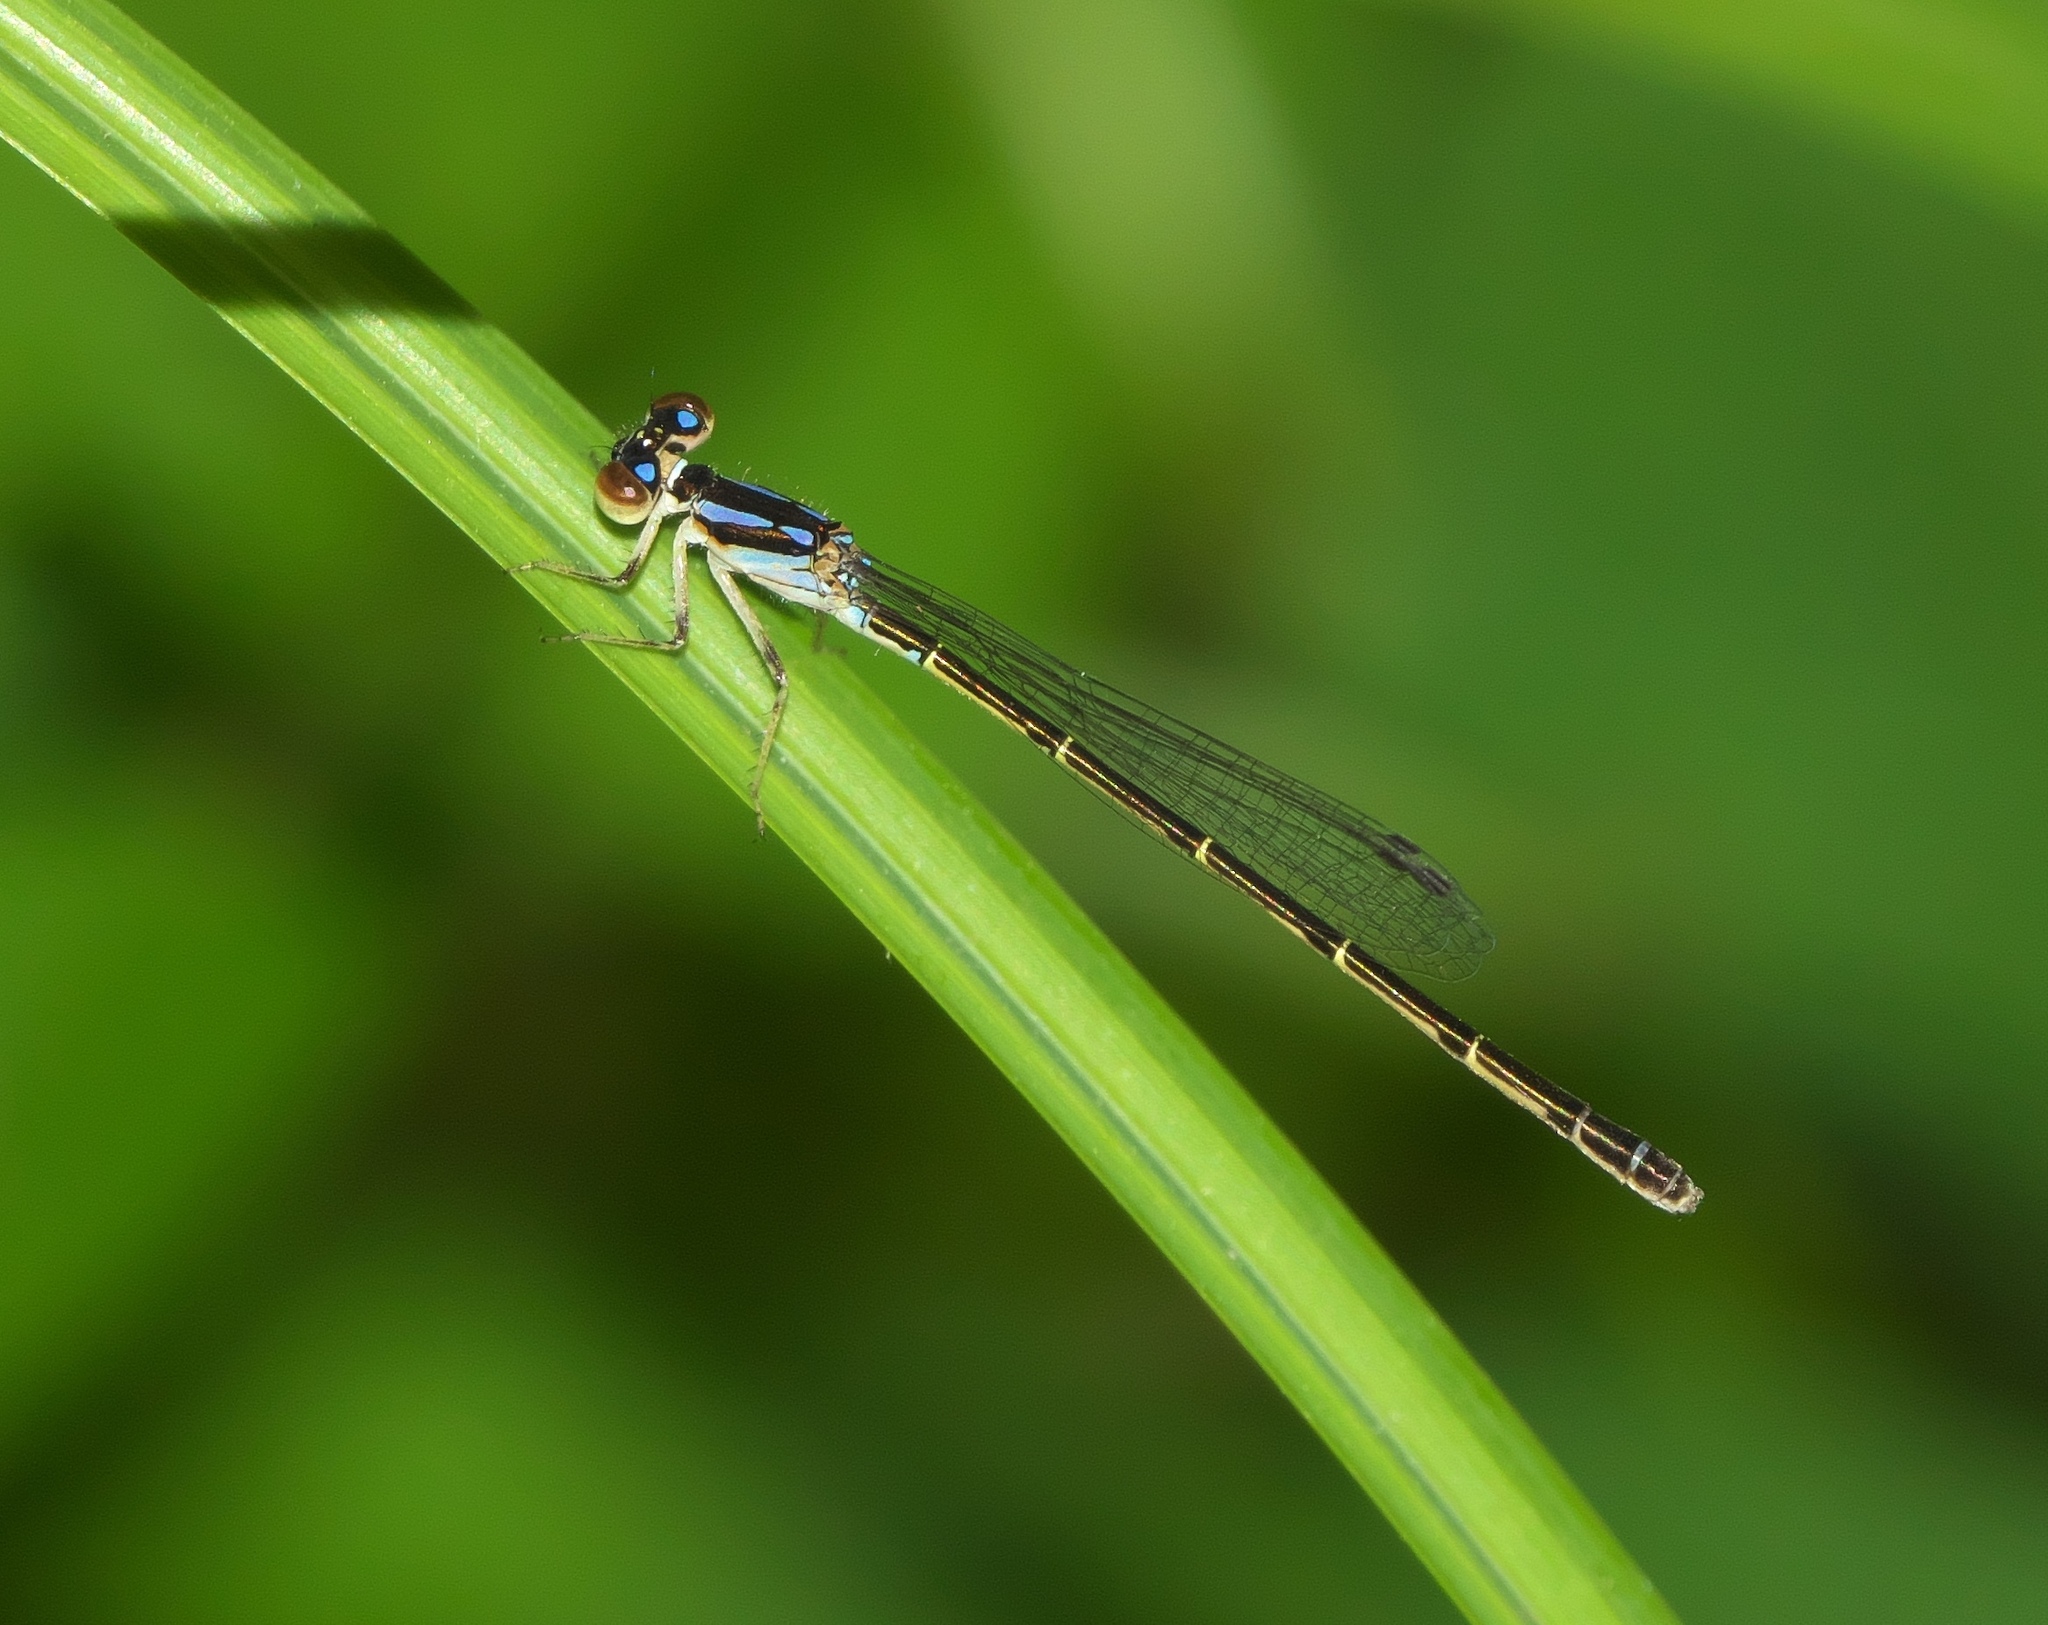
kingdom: Animalia
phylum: Arthropoda
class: Insecta
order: Odonata
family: Coenagrionidae
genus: Ischnura
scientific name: Ischnura posita
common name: Fragile forktail
